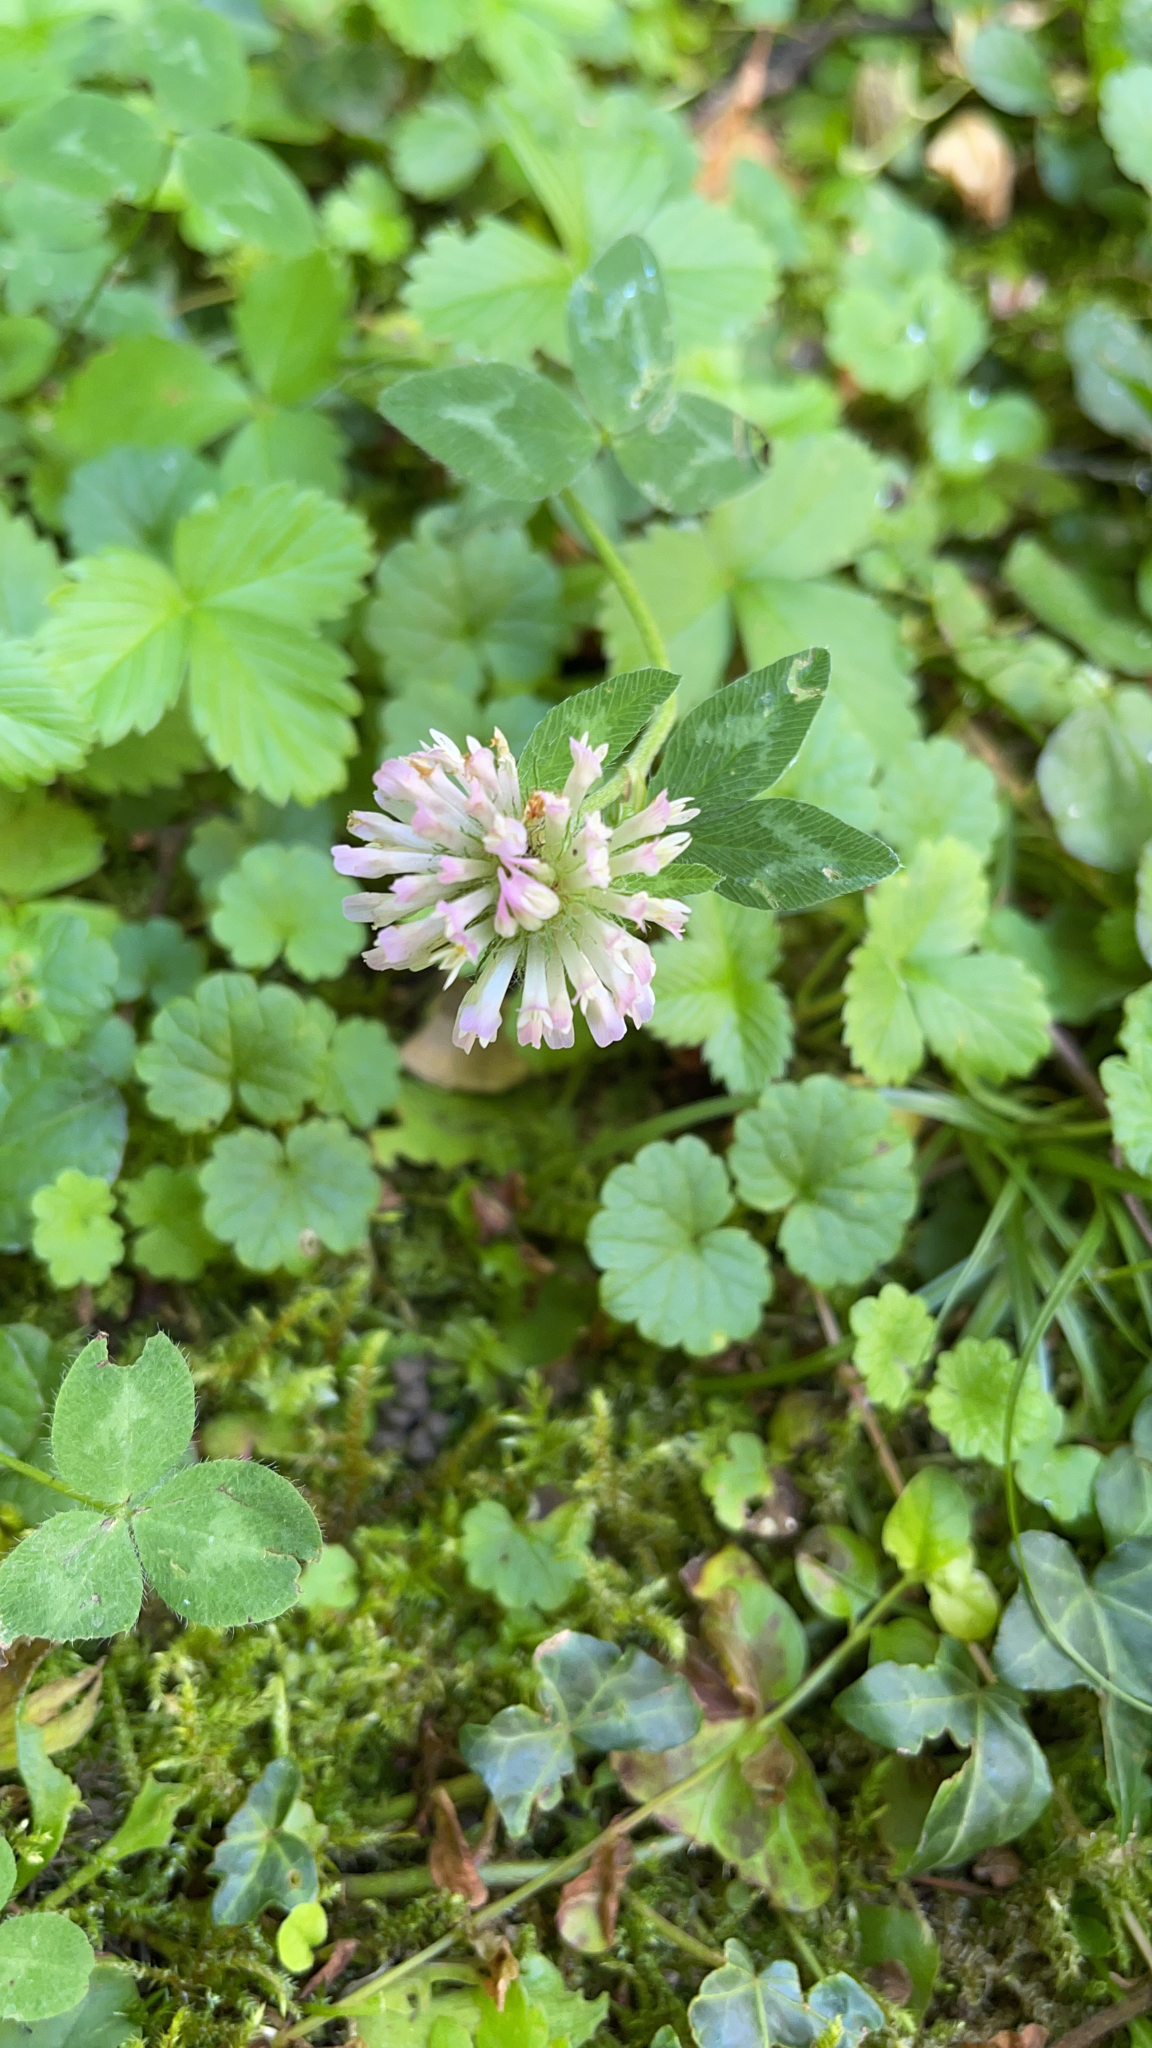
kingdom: Plantae
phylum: Tracheophyta
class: Magnoliopsida
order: Fabales
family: Fabaceae
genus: Trifolium
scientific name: Trifolium pratense
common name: Red clover
